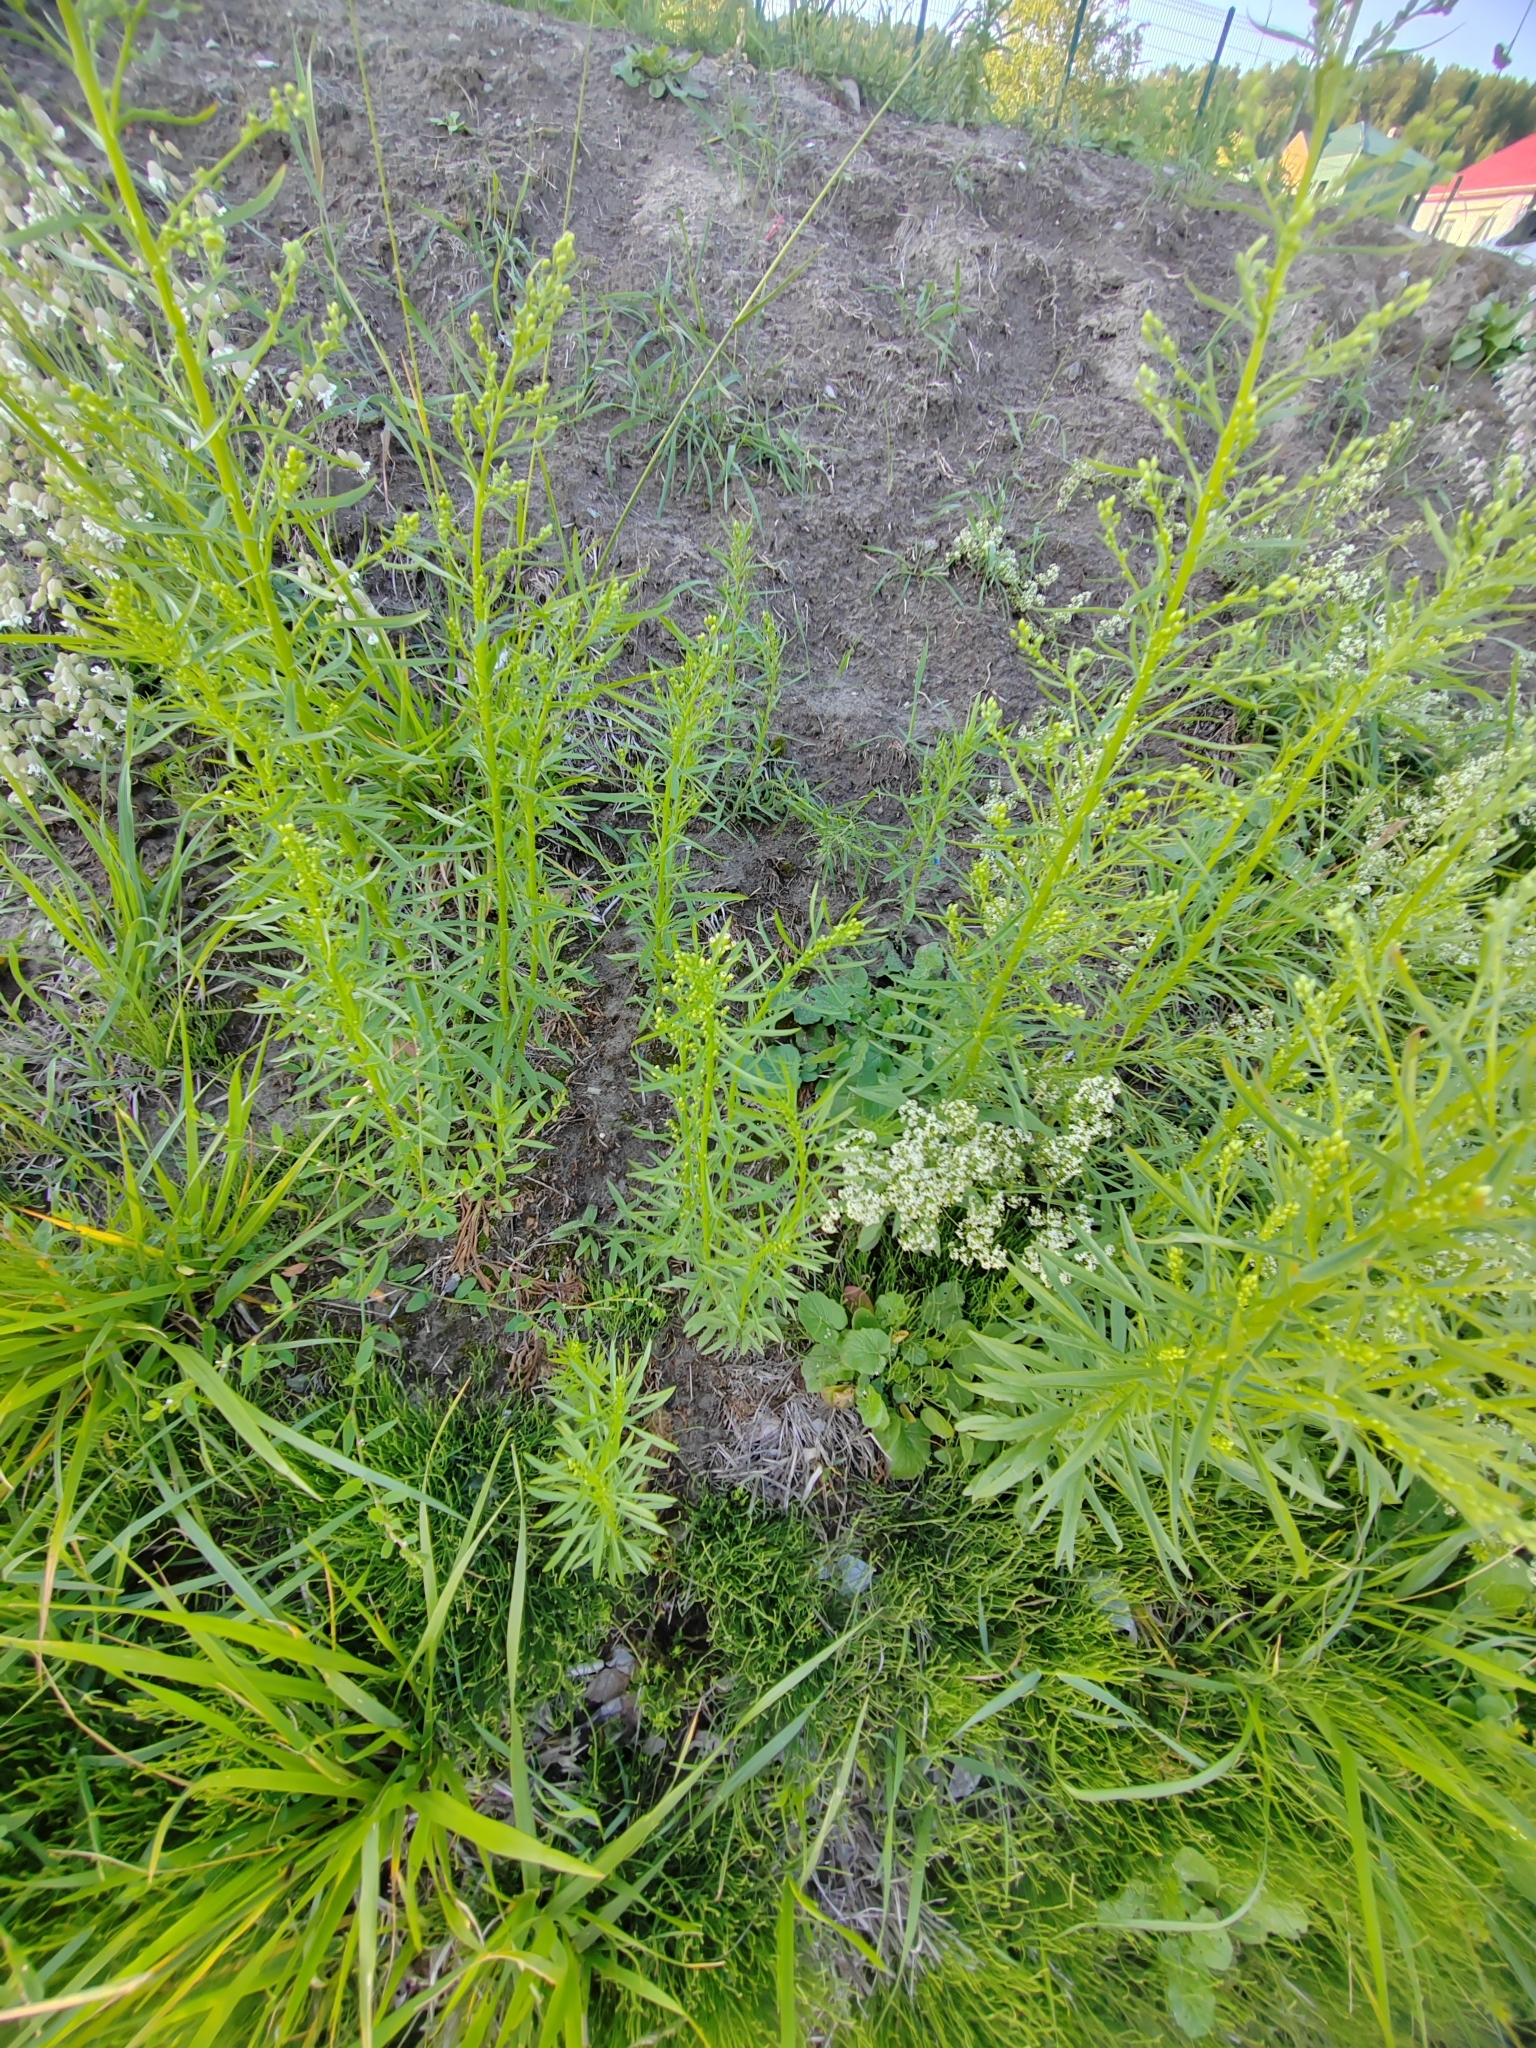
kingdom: Plantae
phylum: Tracheophyta
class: Magnoliopsida
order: Asterales
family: Asteraceae
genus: Erigeron
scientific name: Erigeron canadensis
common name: Canadian fleabane
